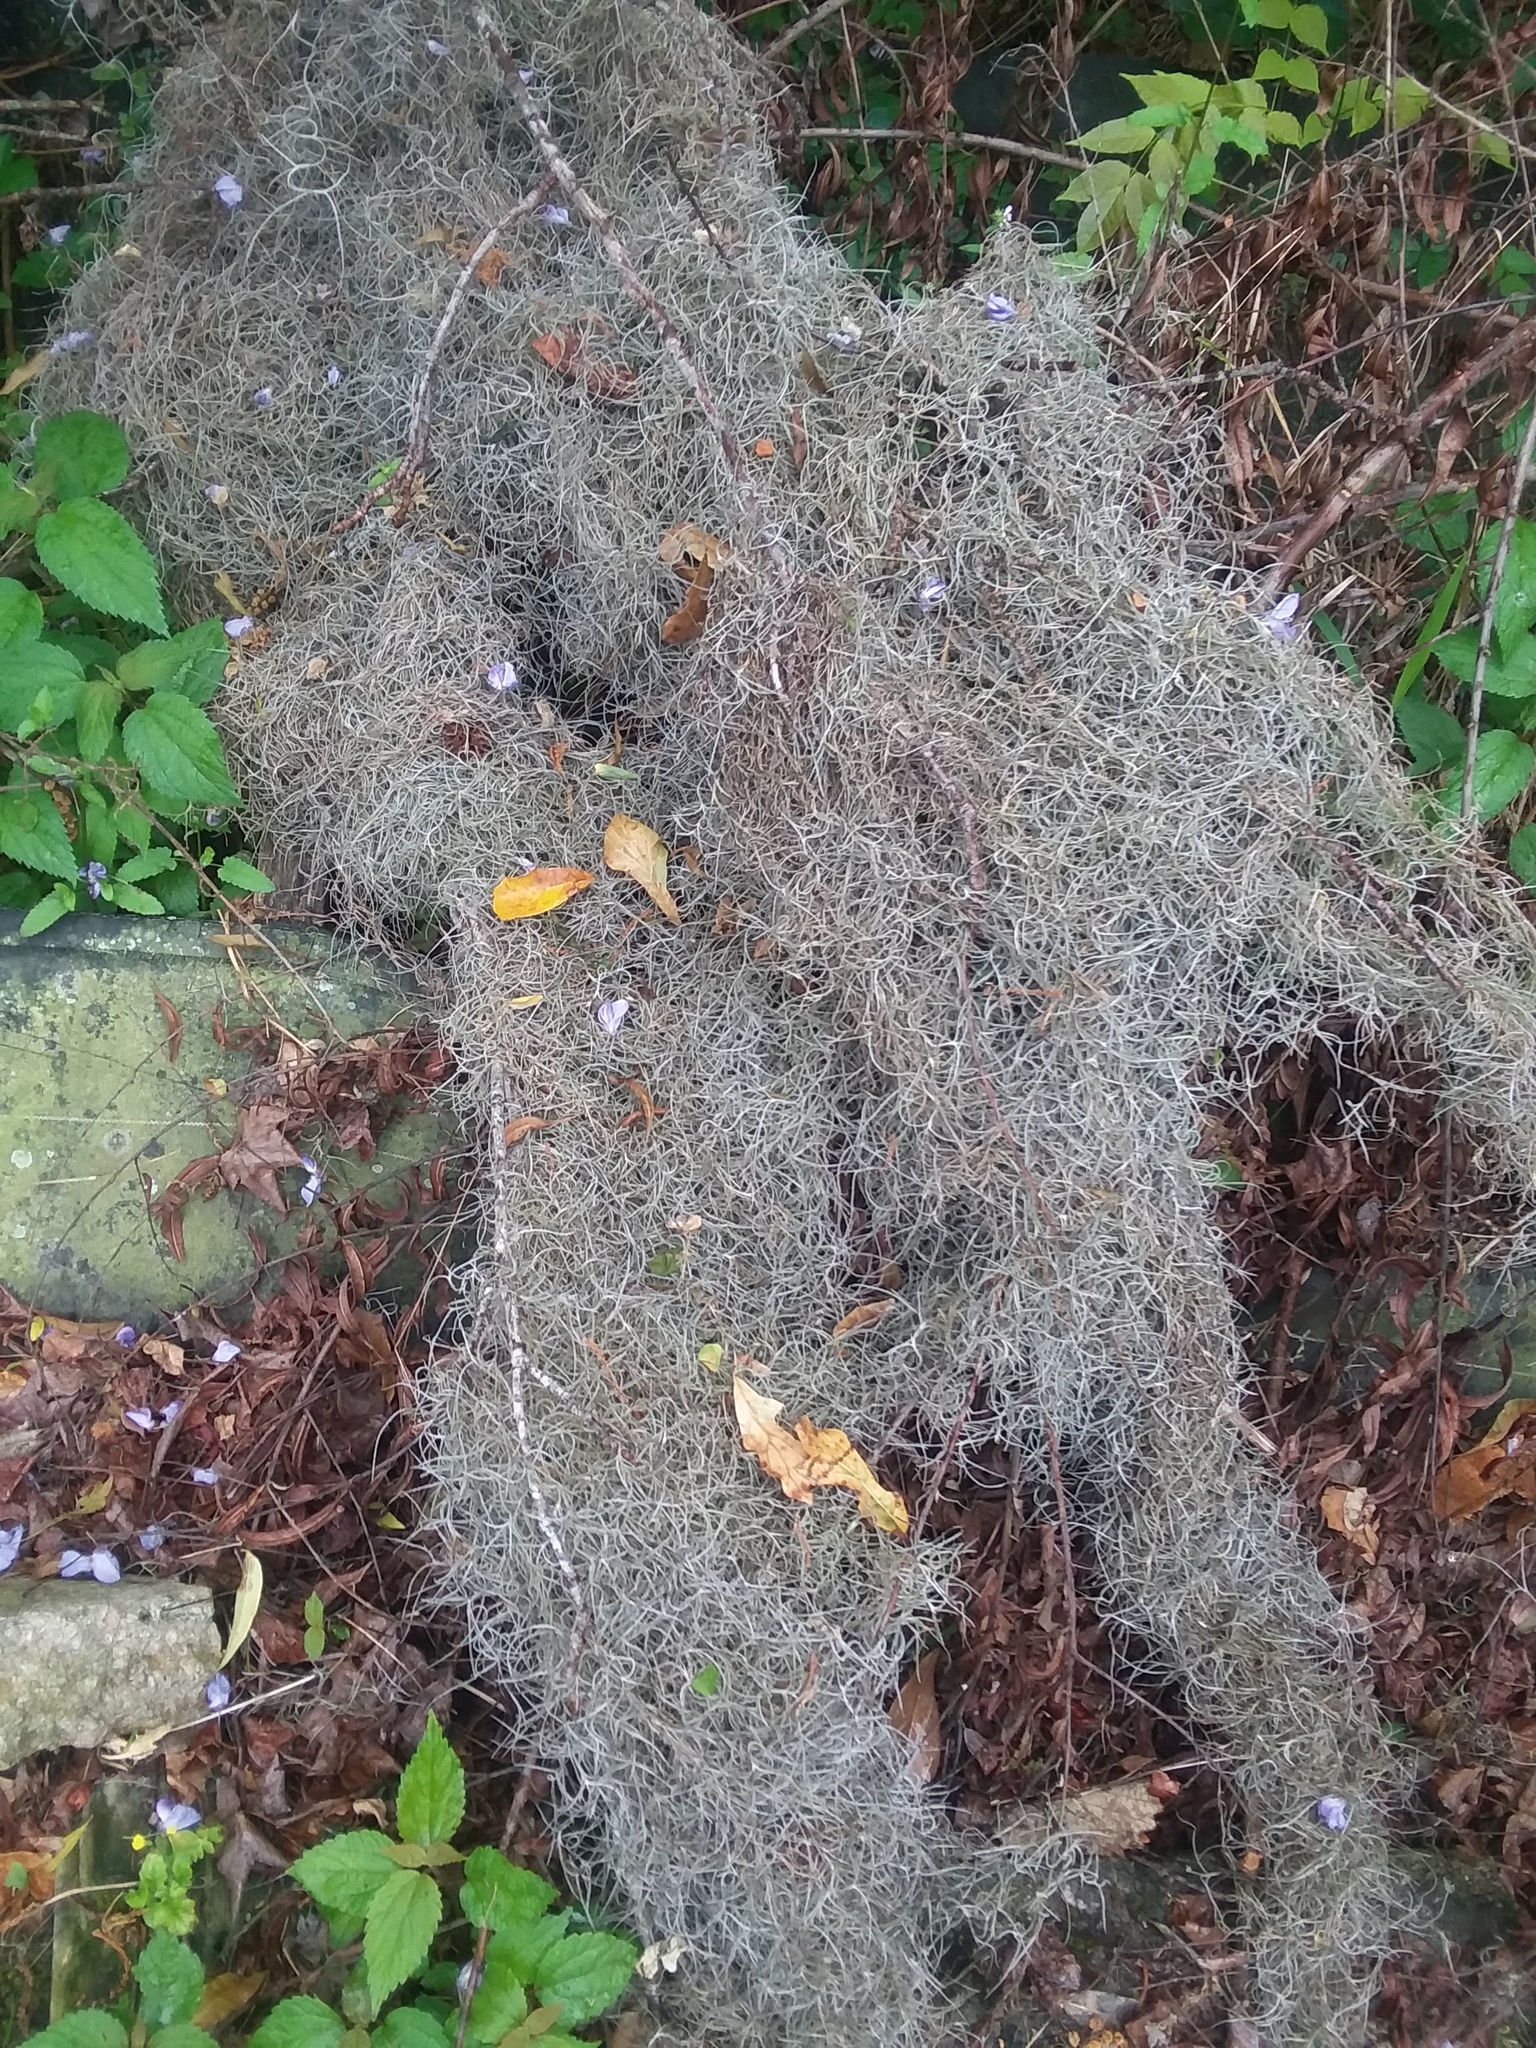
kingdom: Plantae
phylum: Tracheophyta
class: Liliopsida
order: Poales
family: Bromeliaceae
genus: Tillandsia
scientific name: Tillandsia usneoides
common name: Spanish moss
